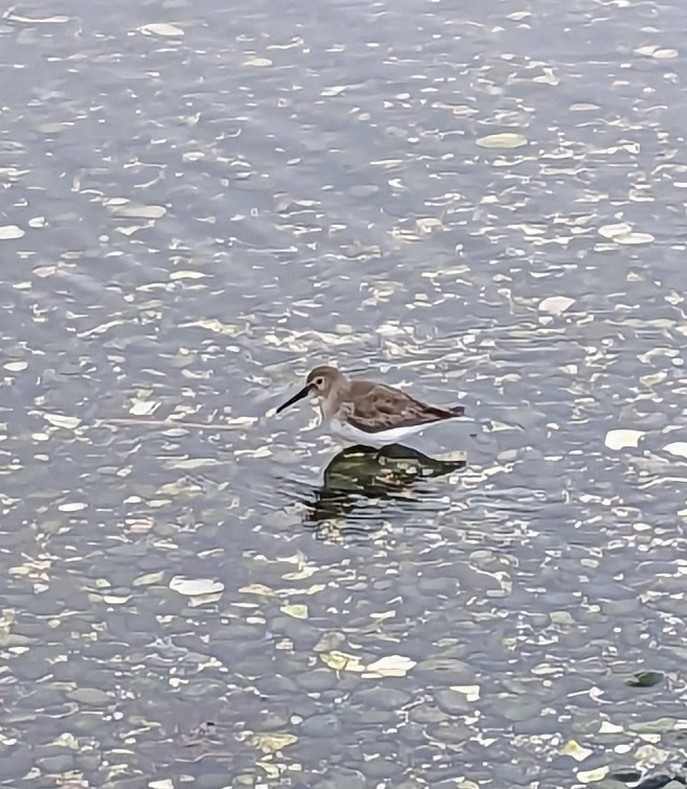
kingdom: Animalia
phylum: Chordata
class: Aves
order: Charadriiformes
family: Scolopacidae
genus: Calidris
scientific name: Calidris alpina
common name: Dunlin
